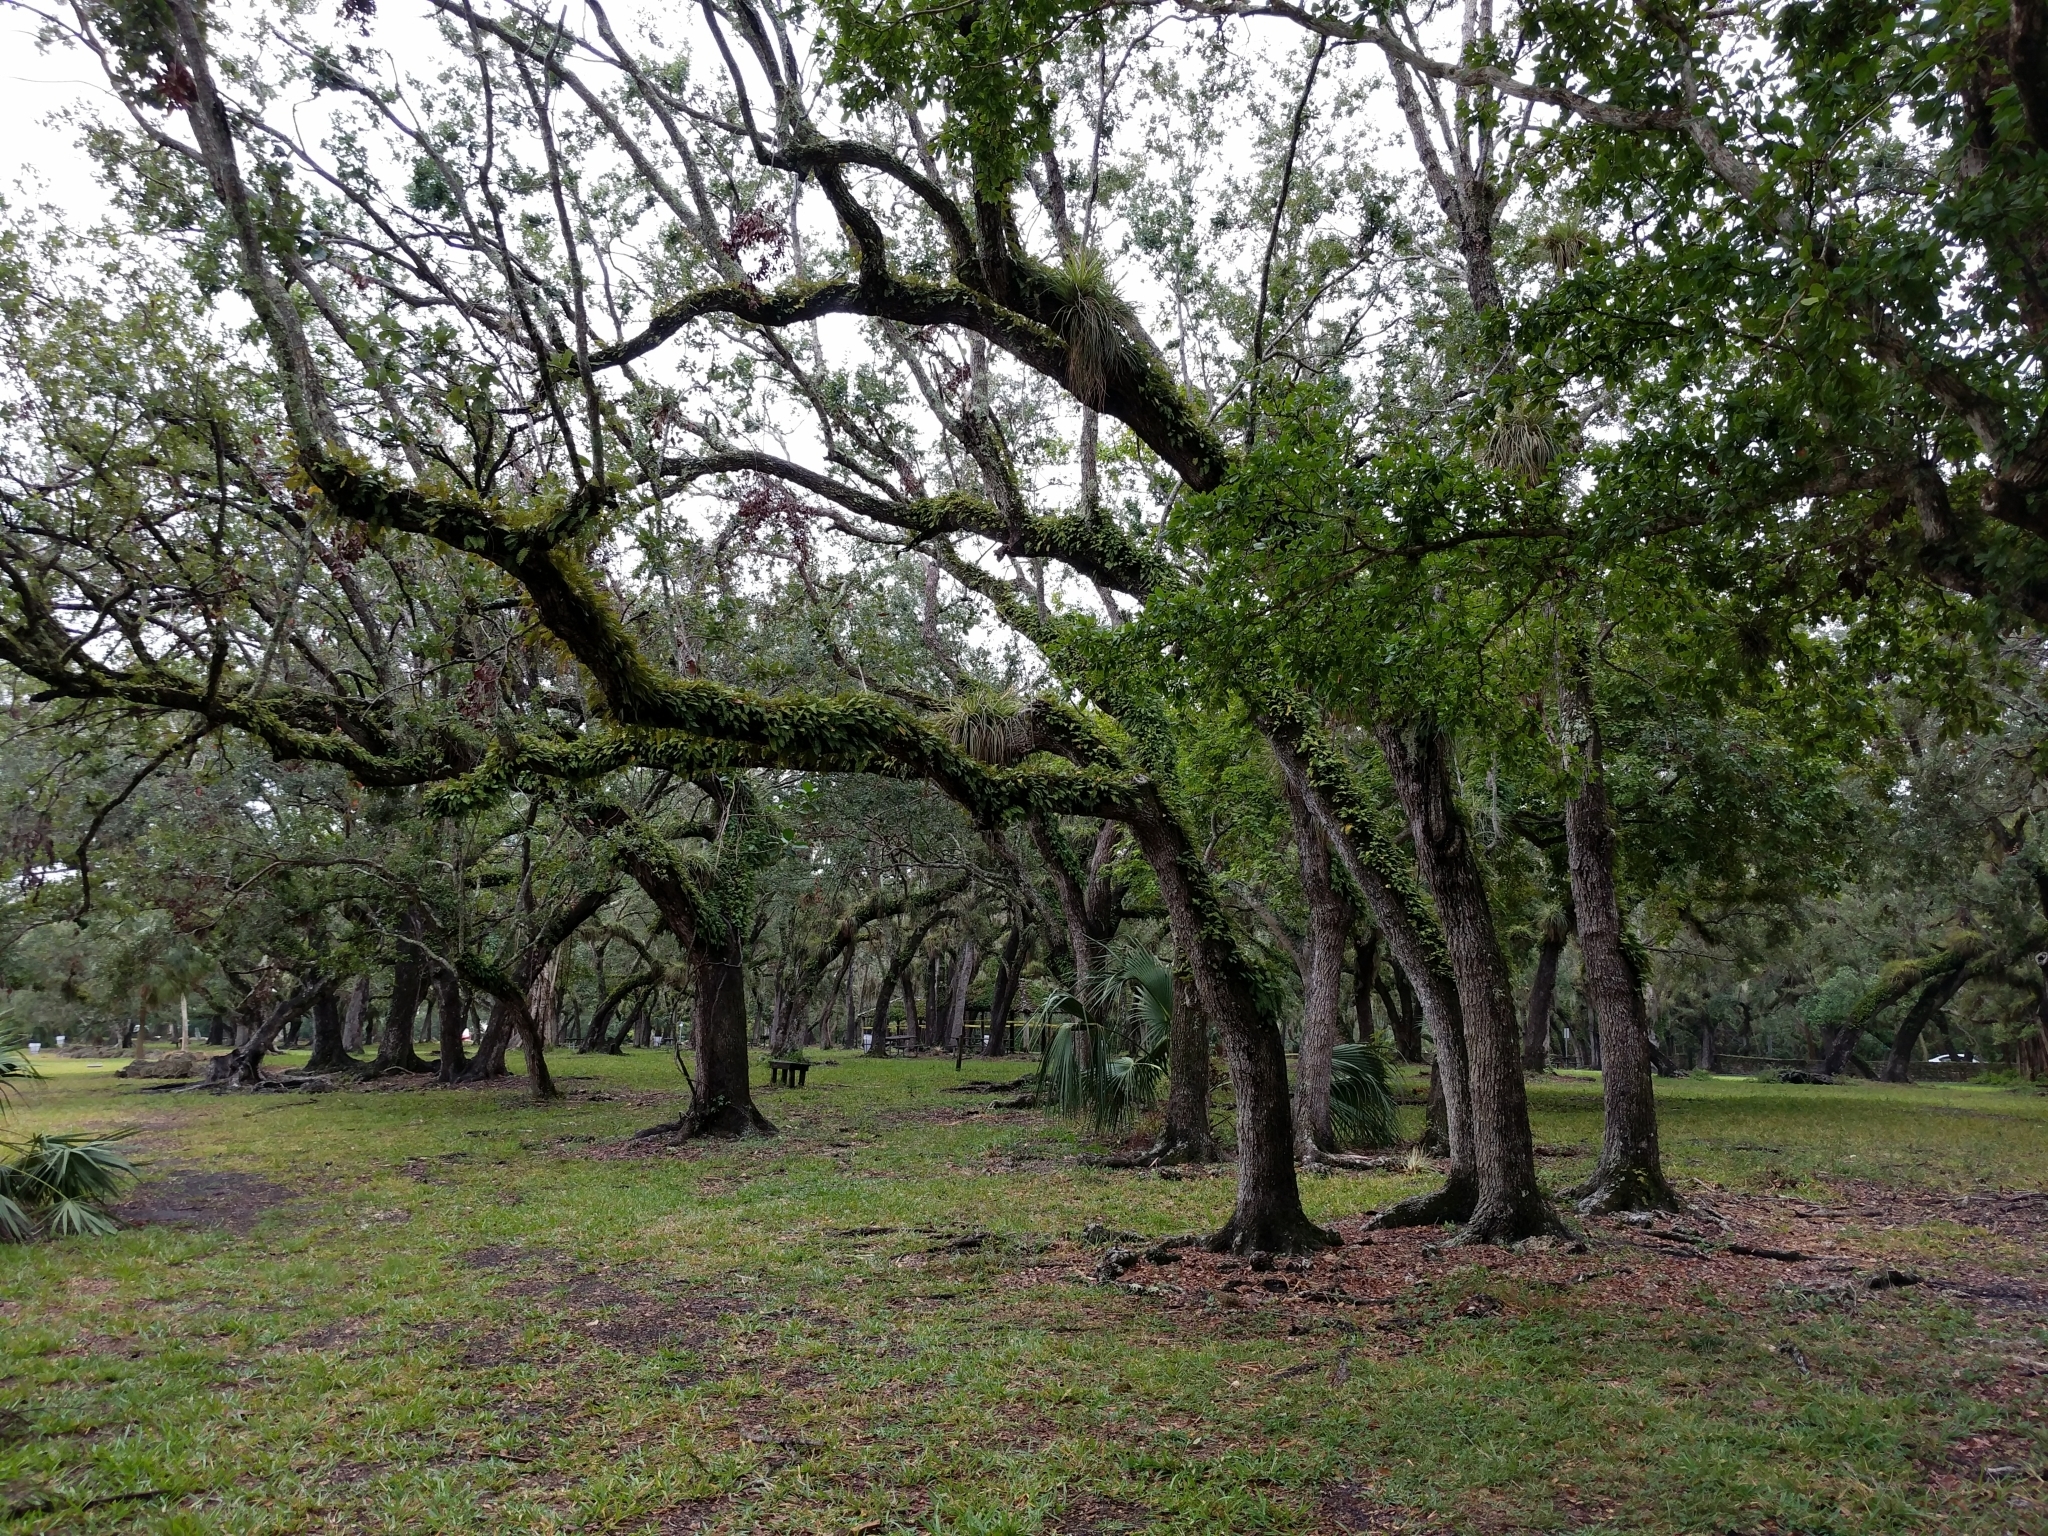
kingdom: Plantae
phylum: Tracheophyta
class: Magnoliopsida
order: Fagales
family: Fagaceae
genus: Quercus
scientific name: Quercus virginiana
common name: Southern live oak
